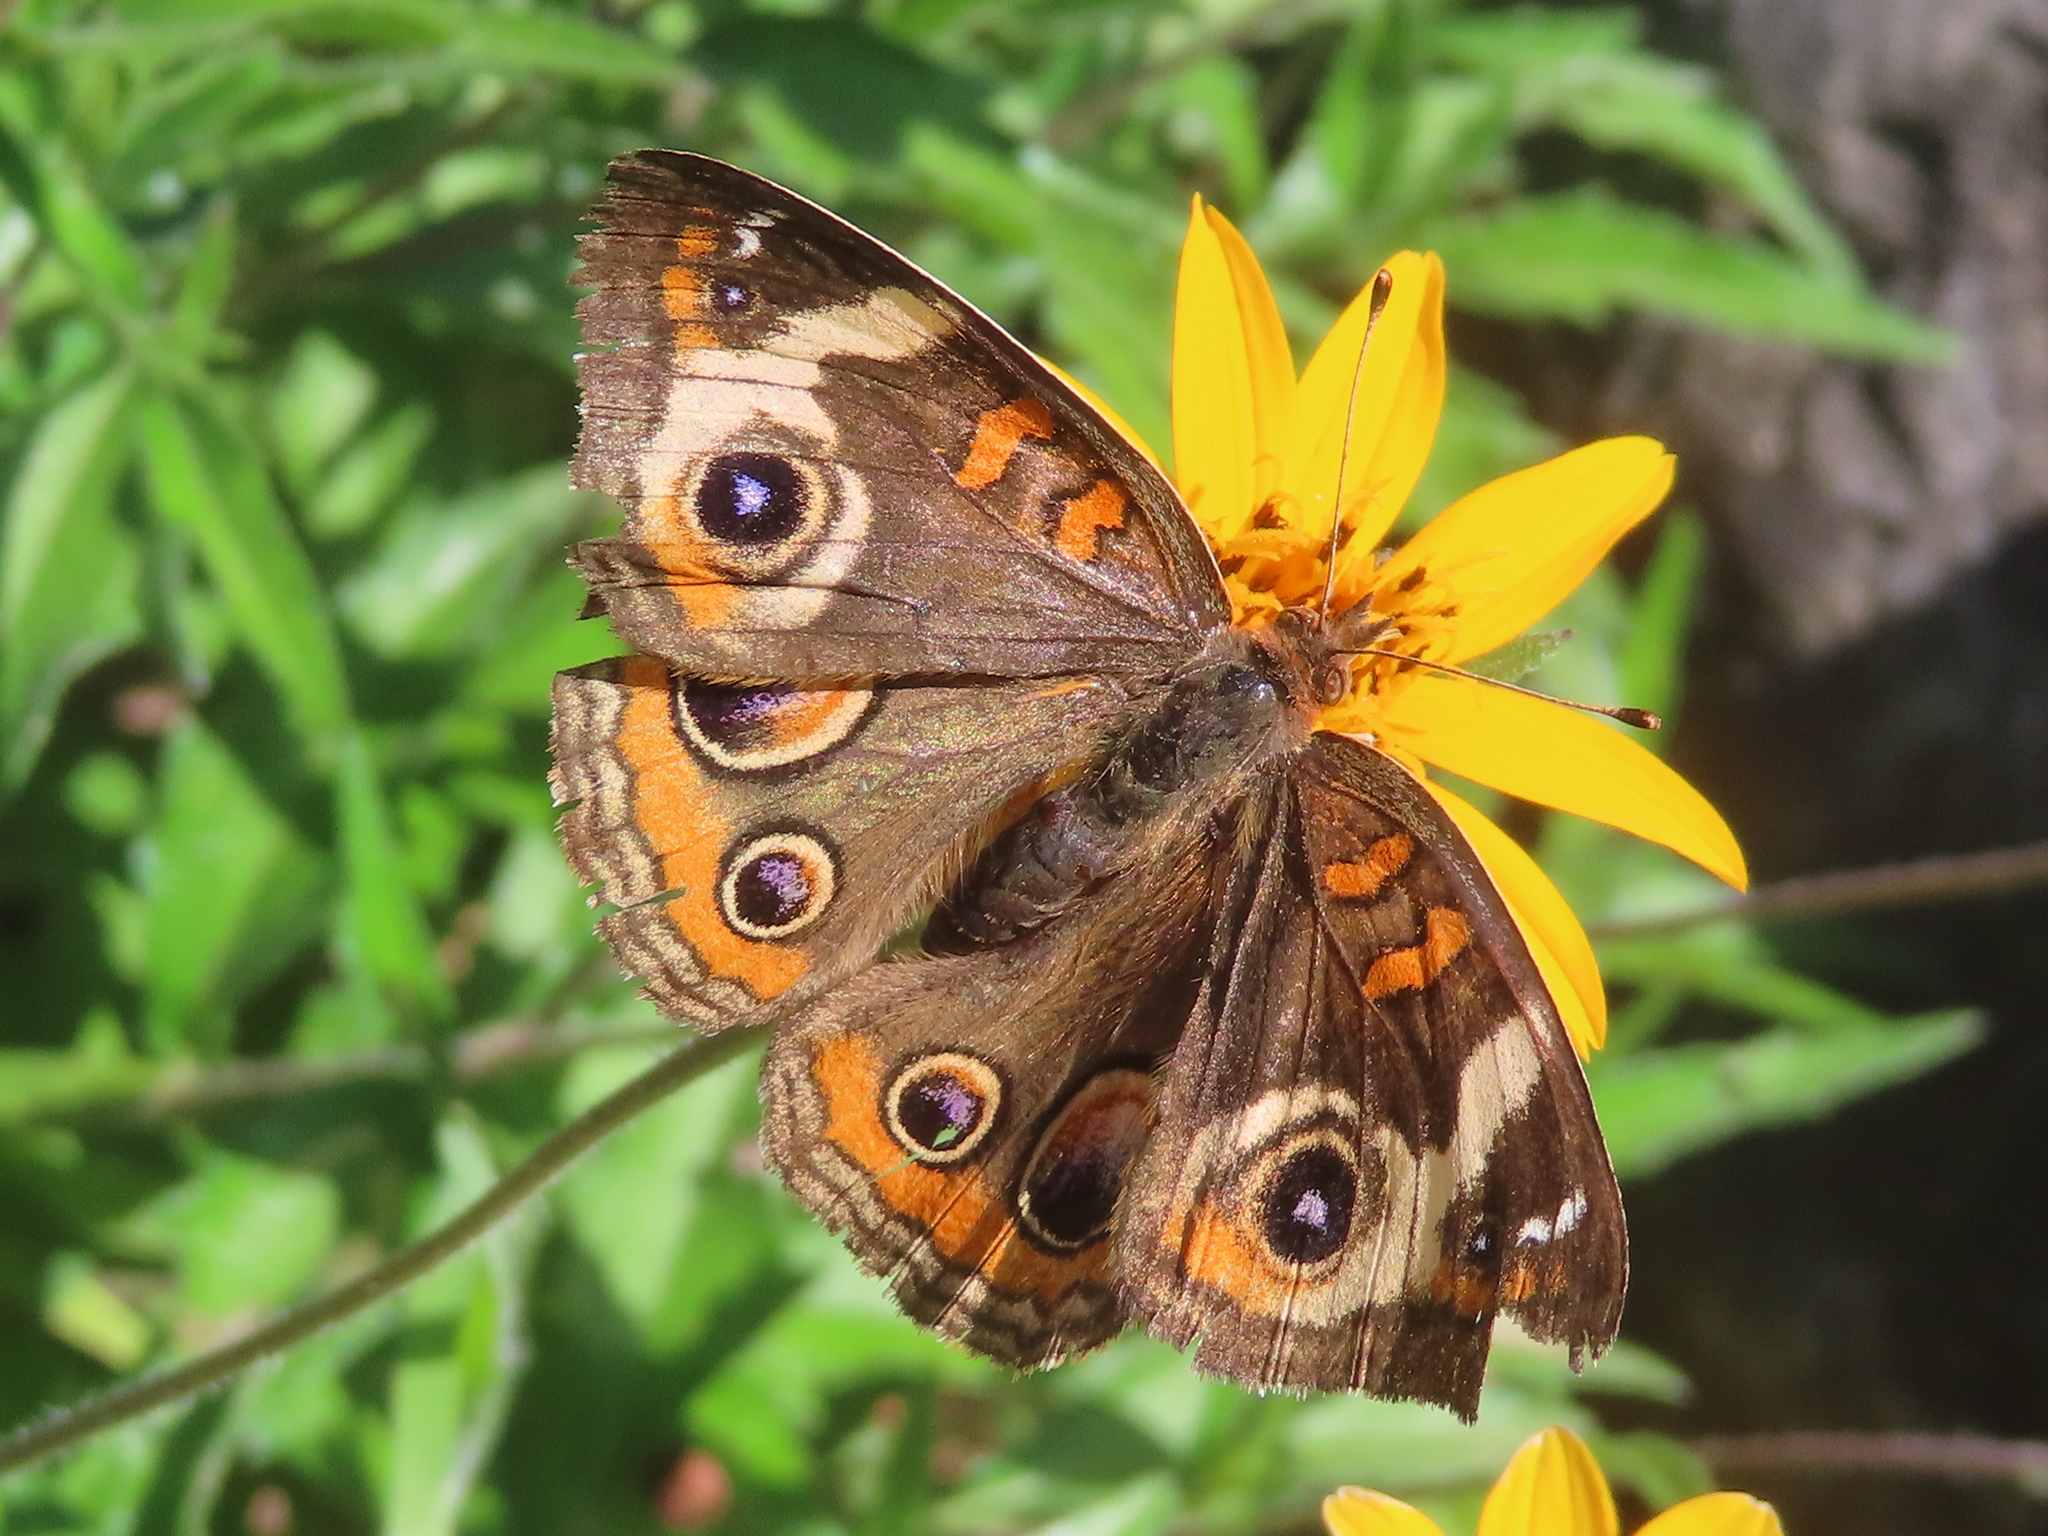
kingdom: Animalia
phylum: Arthropoda
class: Insecta
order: Lepidoptera
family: Nymphalidae
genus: Junonia
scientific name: Junonia coenia
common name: Common buckeye
